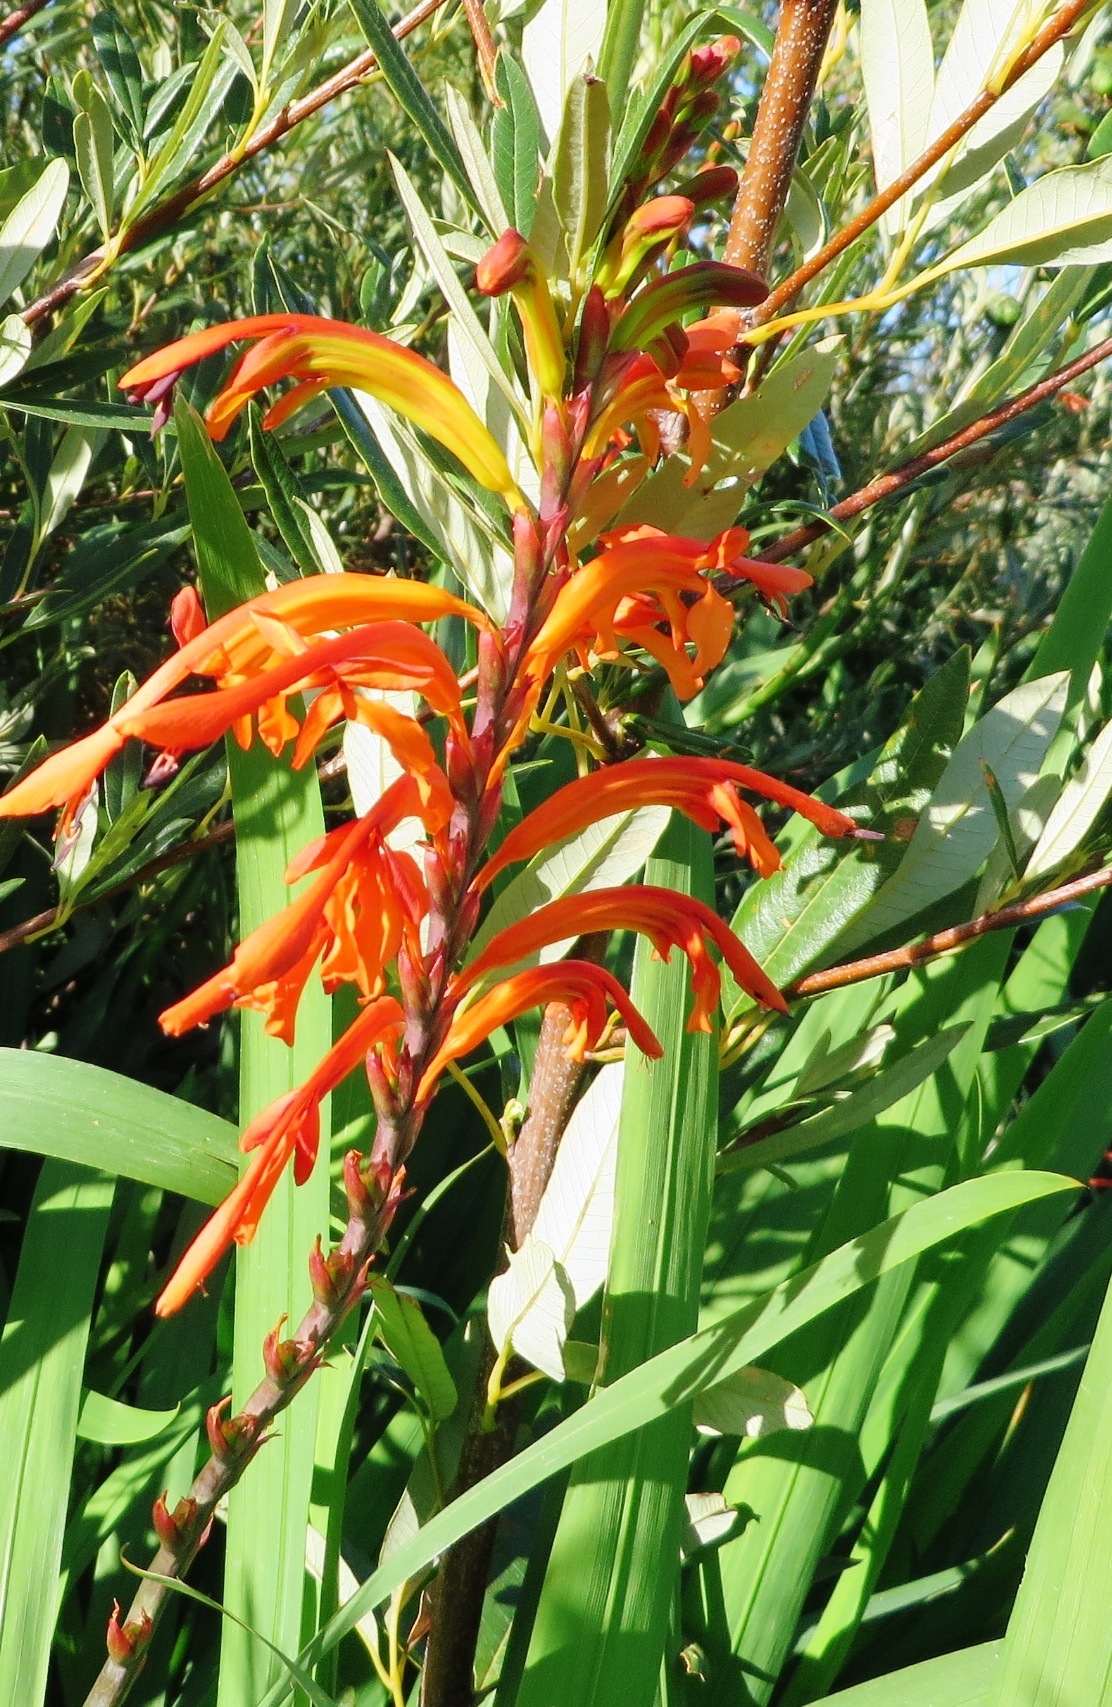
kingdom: Plantae
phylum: Tracheophyta
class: Liliopsida
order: Asparagales
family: Iridaceae
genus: Chasmanthe
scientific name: Chasmanthe floribunda
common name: African cornflag
